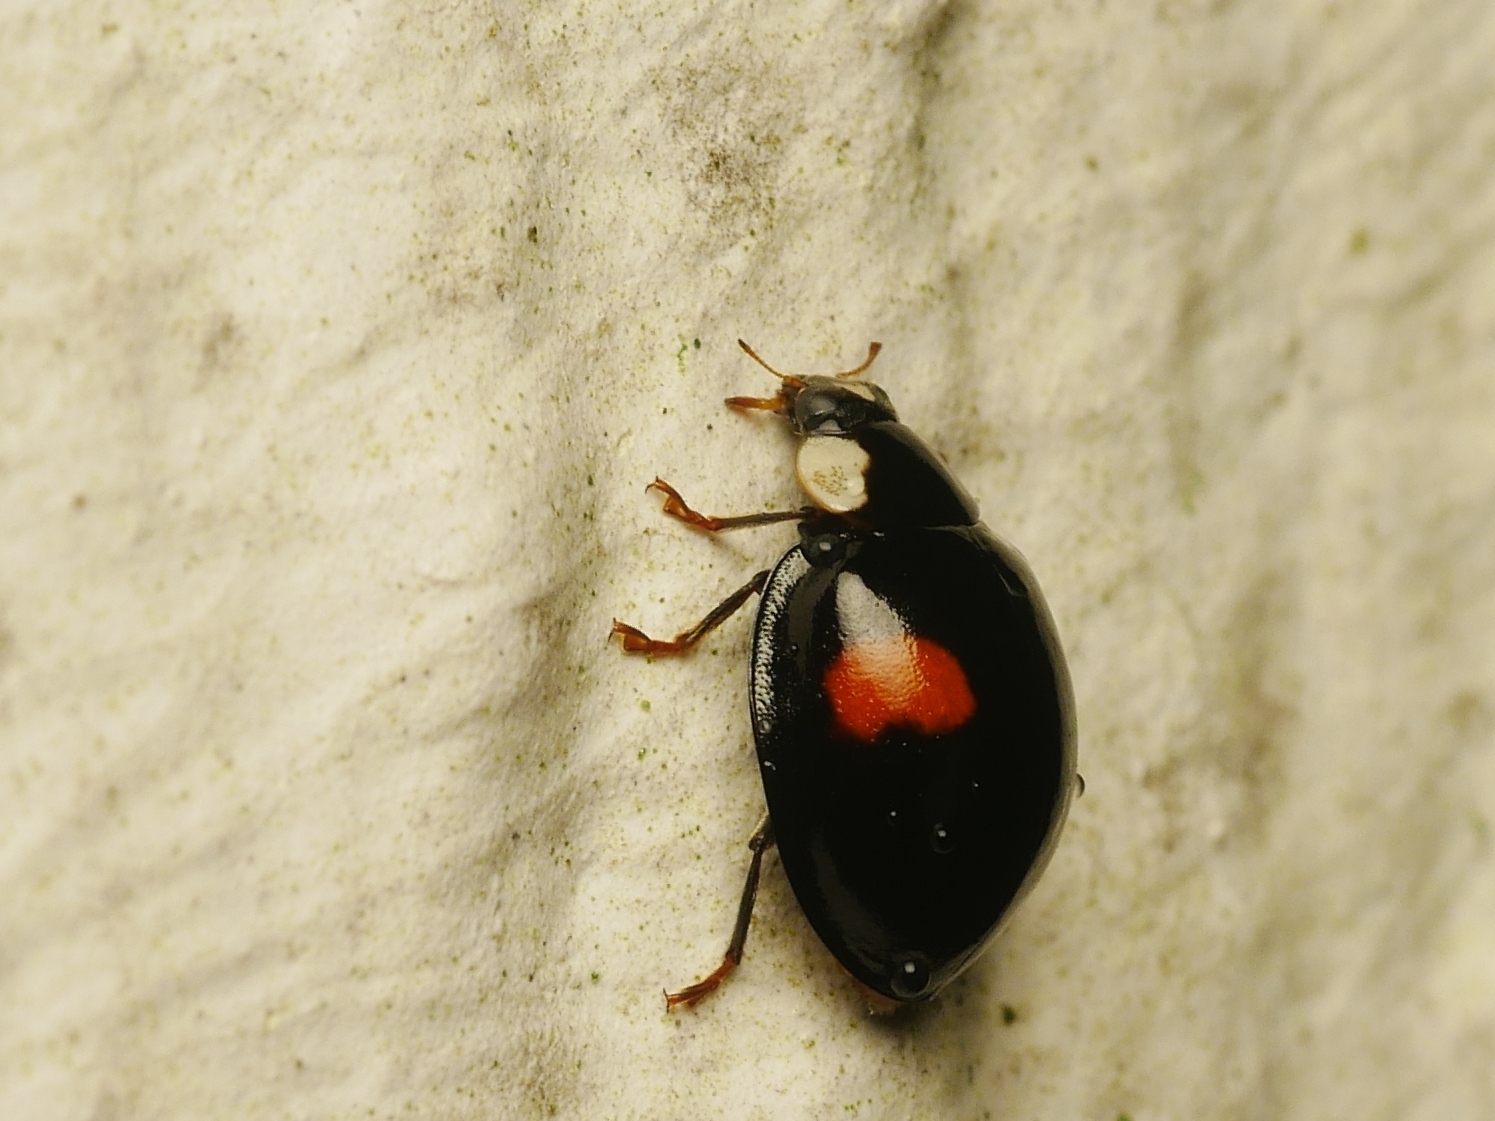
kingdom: Animalia
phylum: Arthropoda
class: Insecta
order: Coleoptera
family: Coccinellidae
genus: Harmonia
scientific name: Harmonia axyridis
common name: Harlequin ladybird
